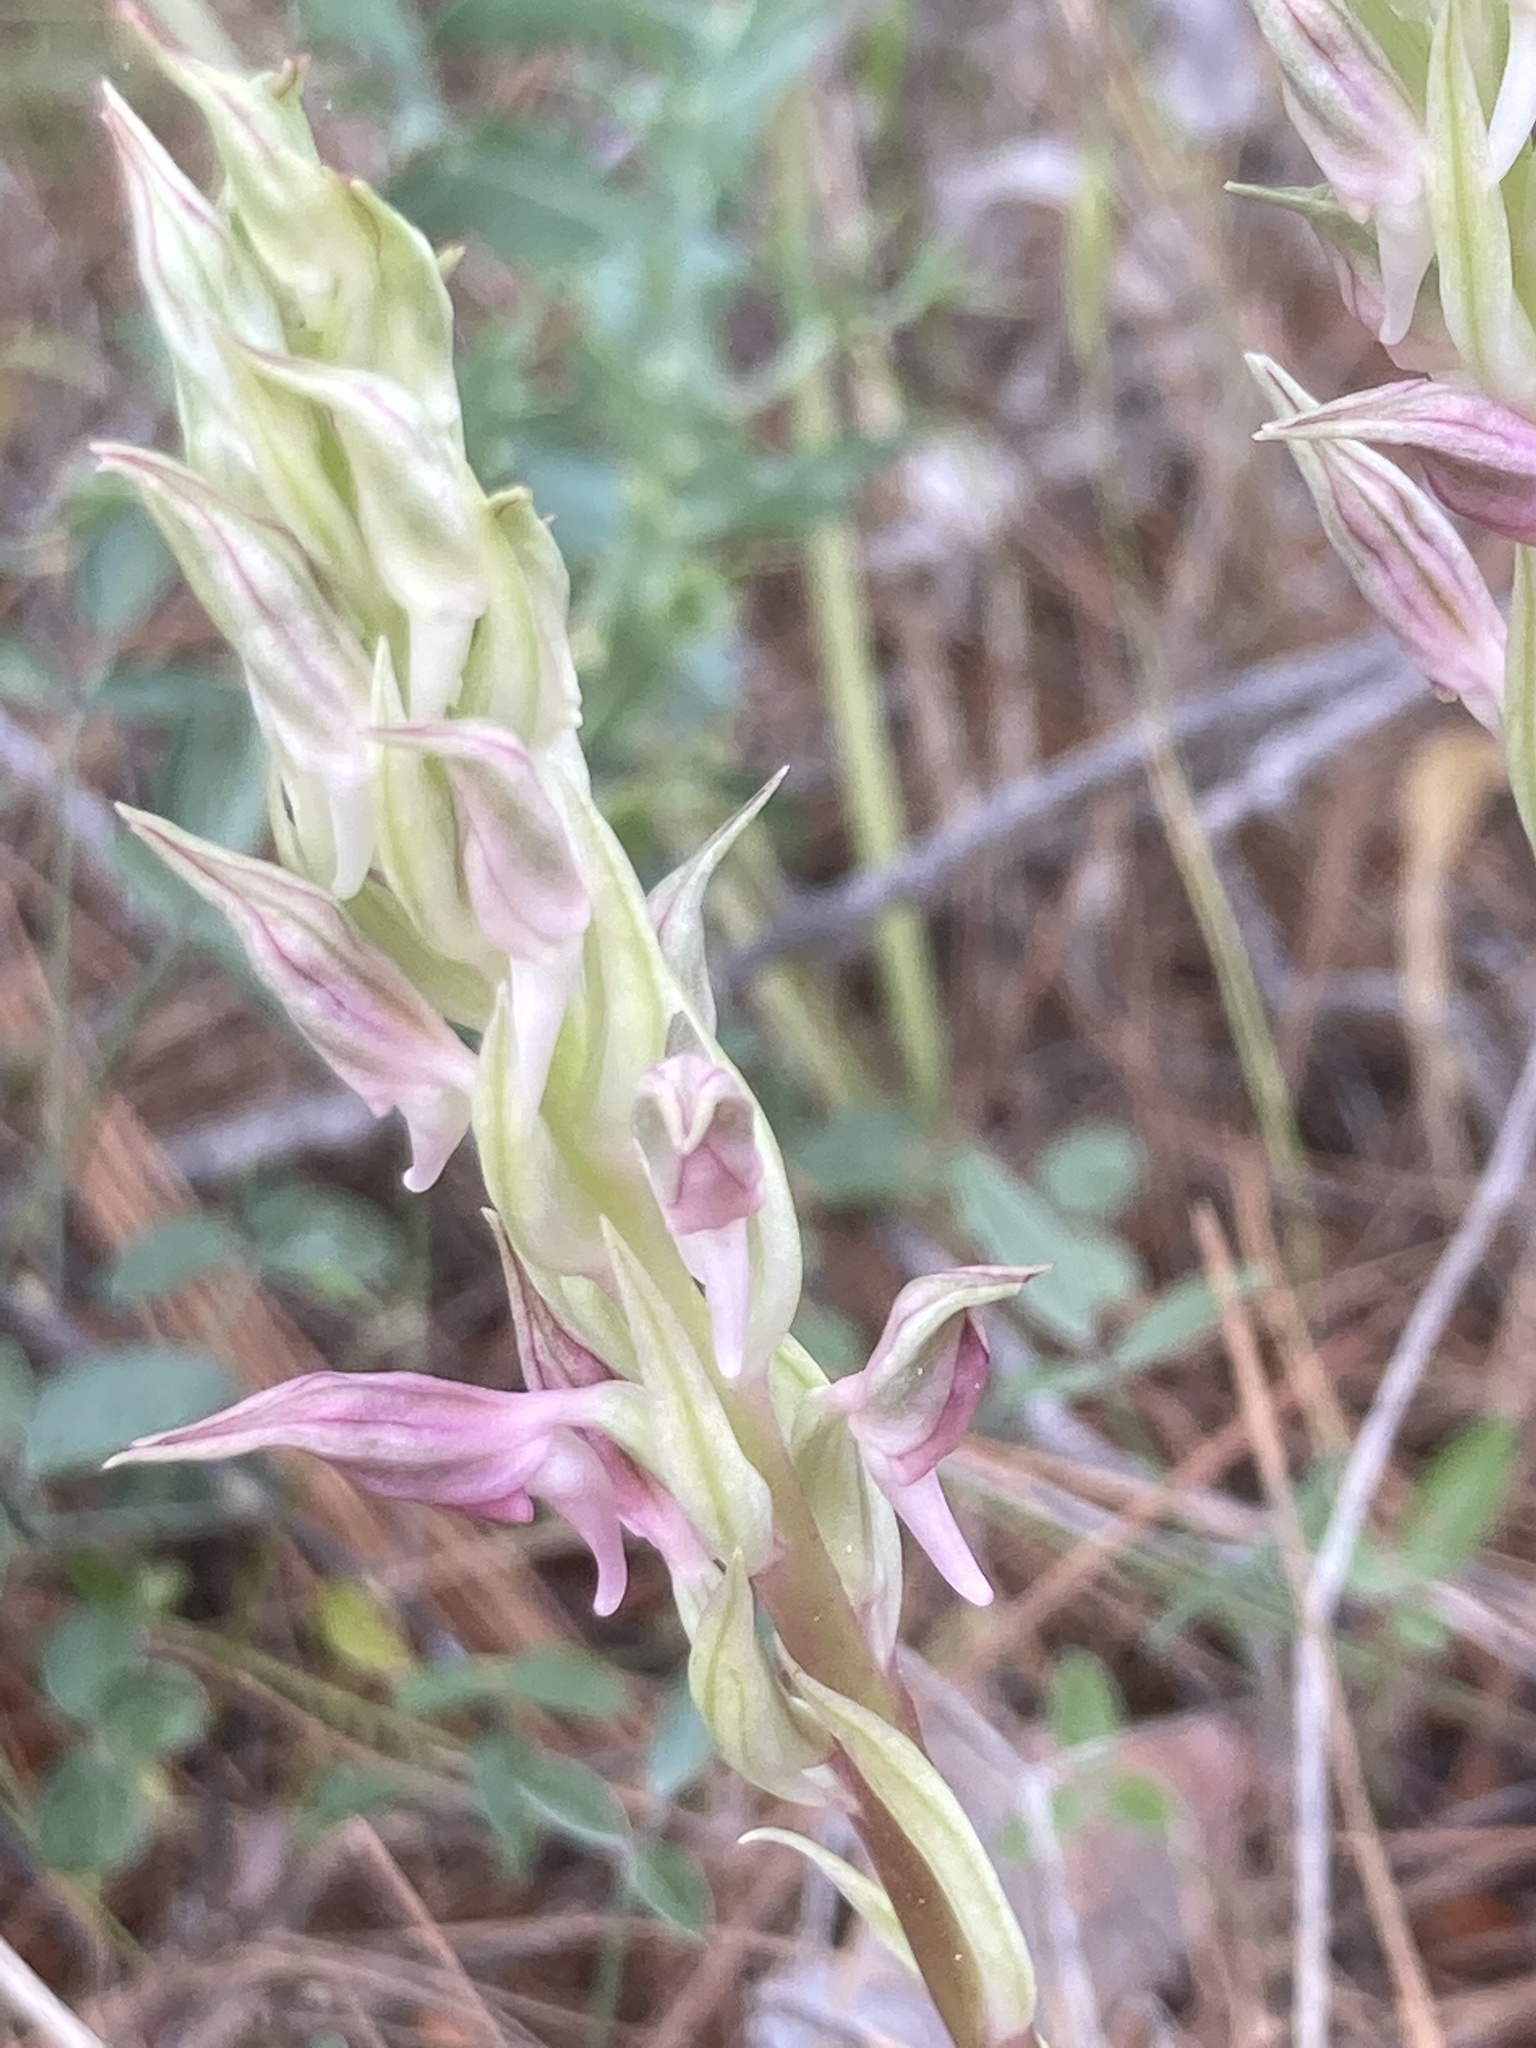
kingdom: Plantae
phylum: Tracheophyta
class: Liliopsida
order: Asparagales
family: Orchidaceae
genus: Anacamptis
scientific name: Anacamptis
